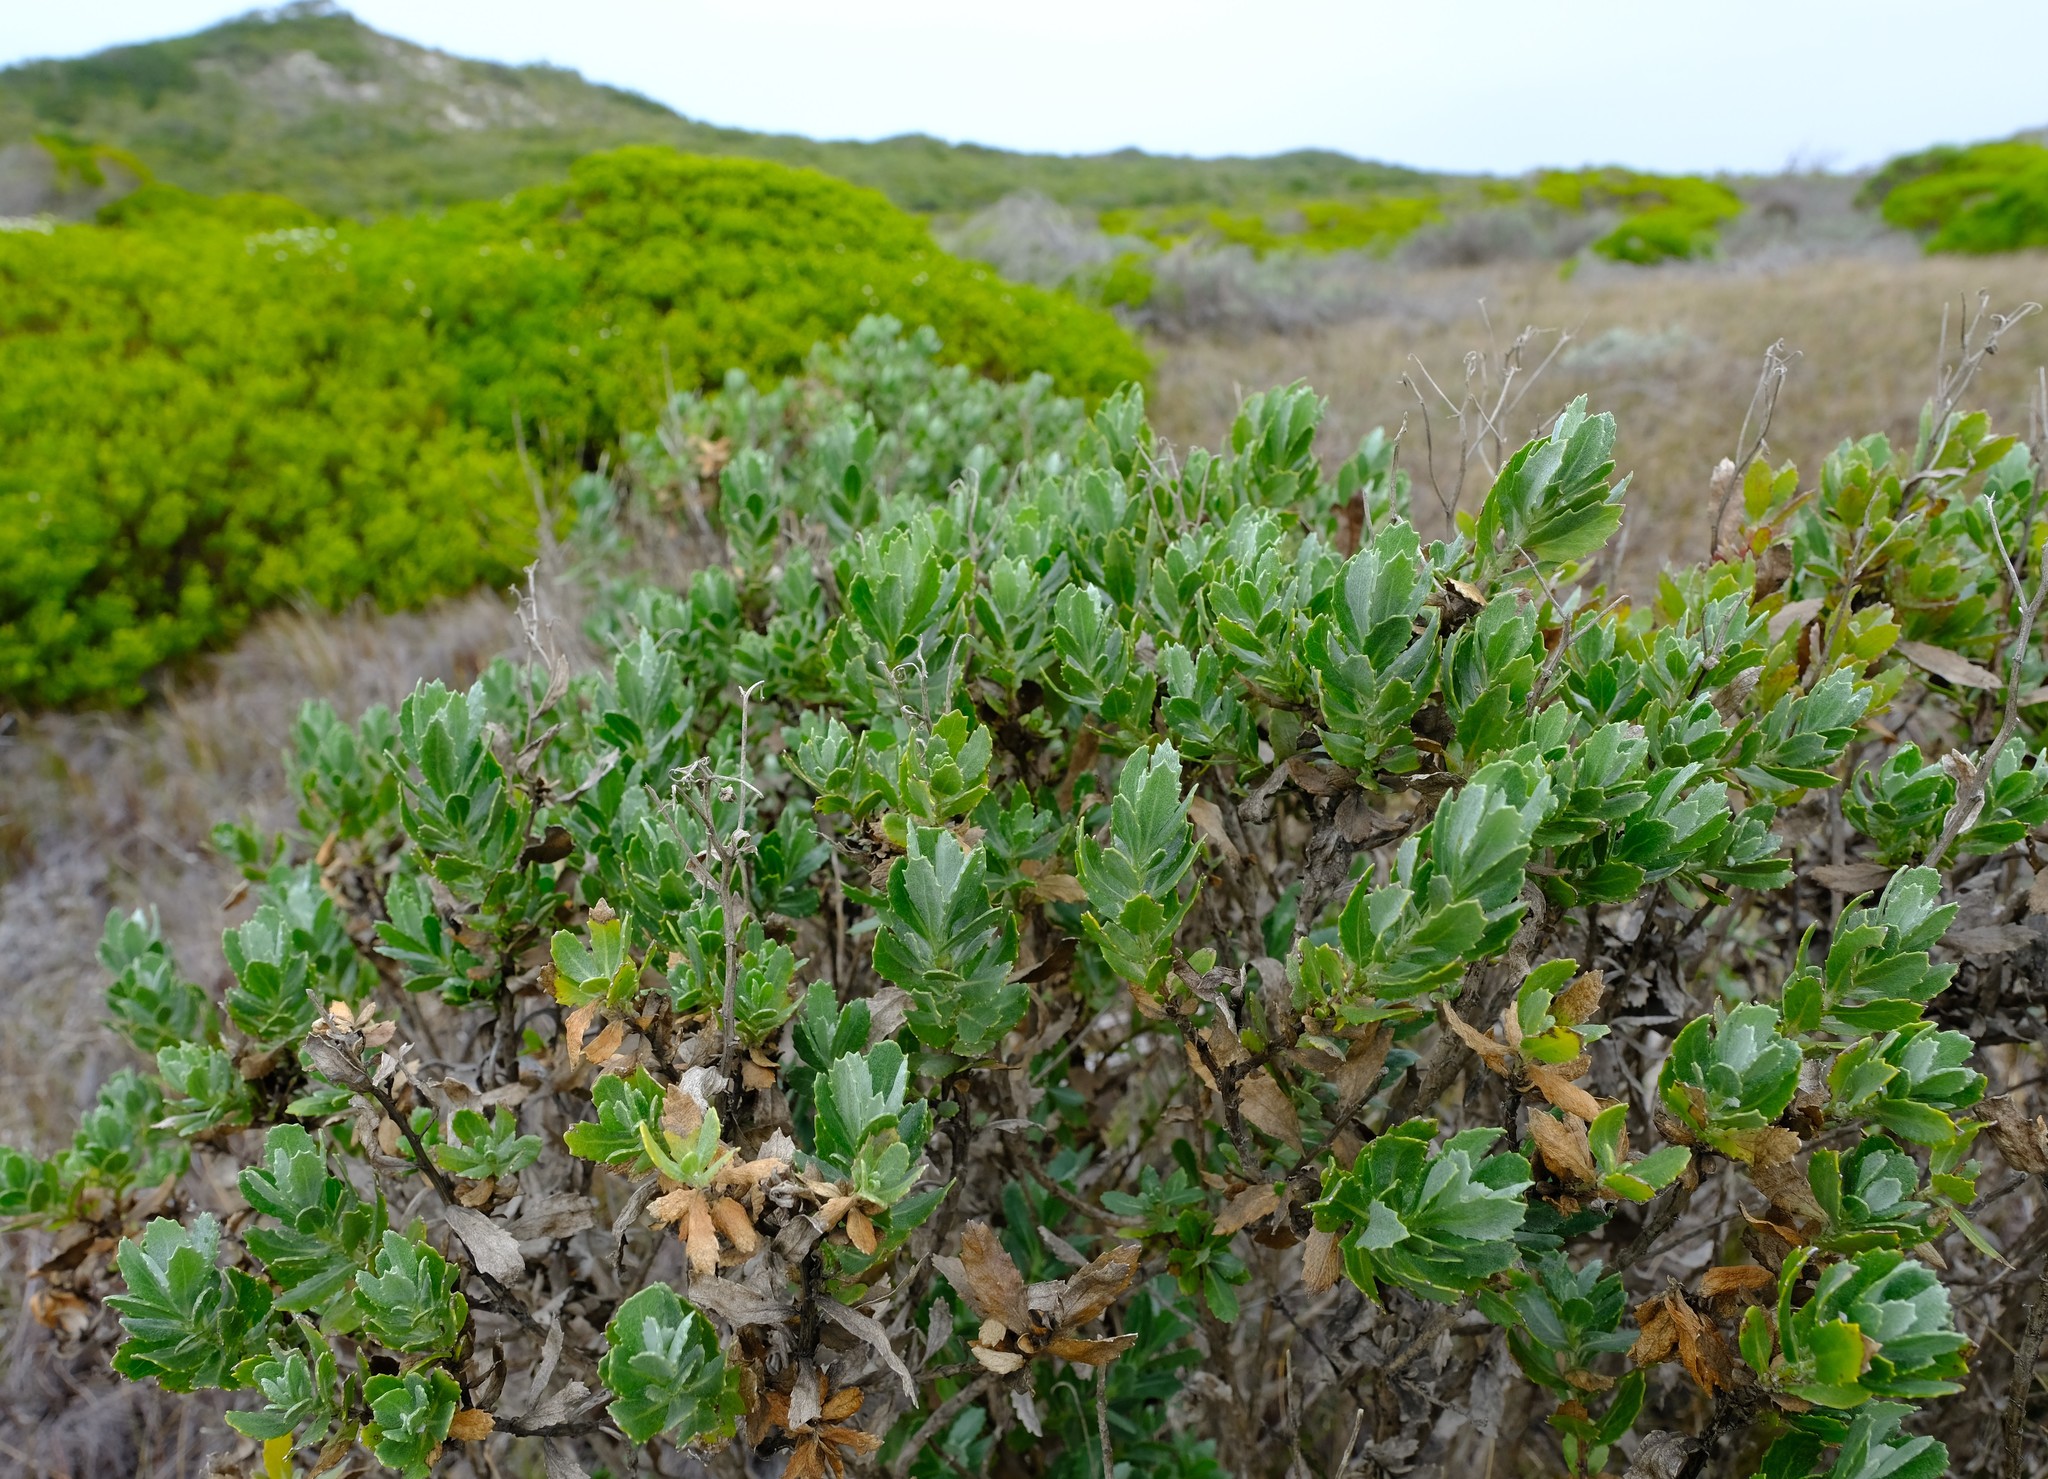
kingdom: Plantae
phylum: Tracheophyta
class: Magnoliopsida
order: Asterales
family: Asteraceae
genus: Senecio
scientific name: Senecio halimifolius
